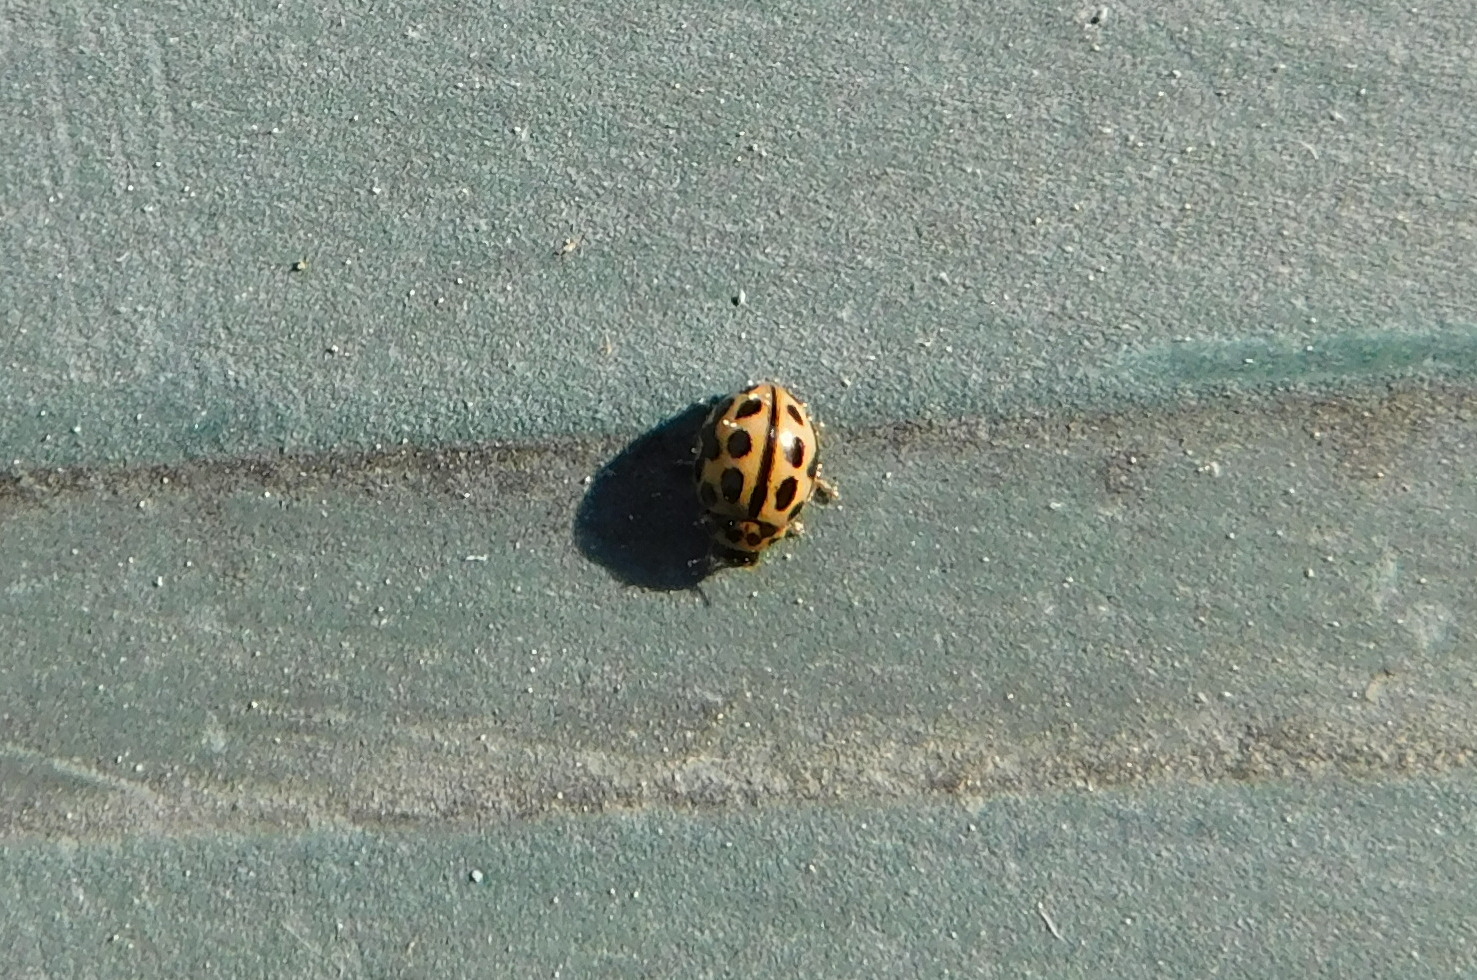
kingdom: Animalia
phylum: Arthropoda
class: Insecta
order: Coleoptera
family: Coccinellidae
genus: Tytthaspis
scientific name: Tytthaspis sedecimpunctata
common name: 16-spot ladybird
